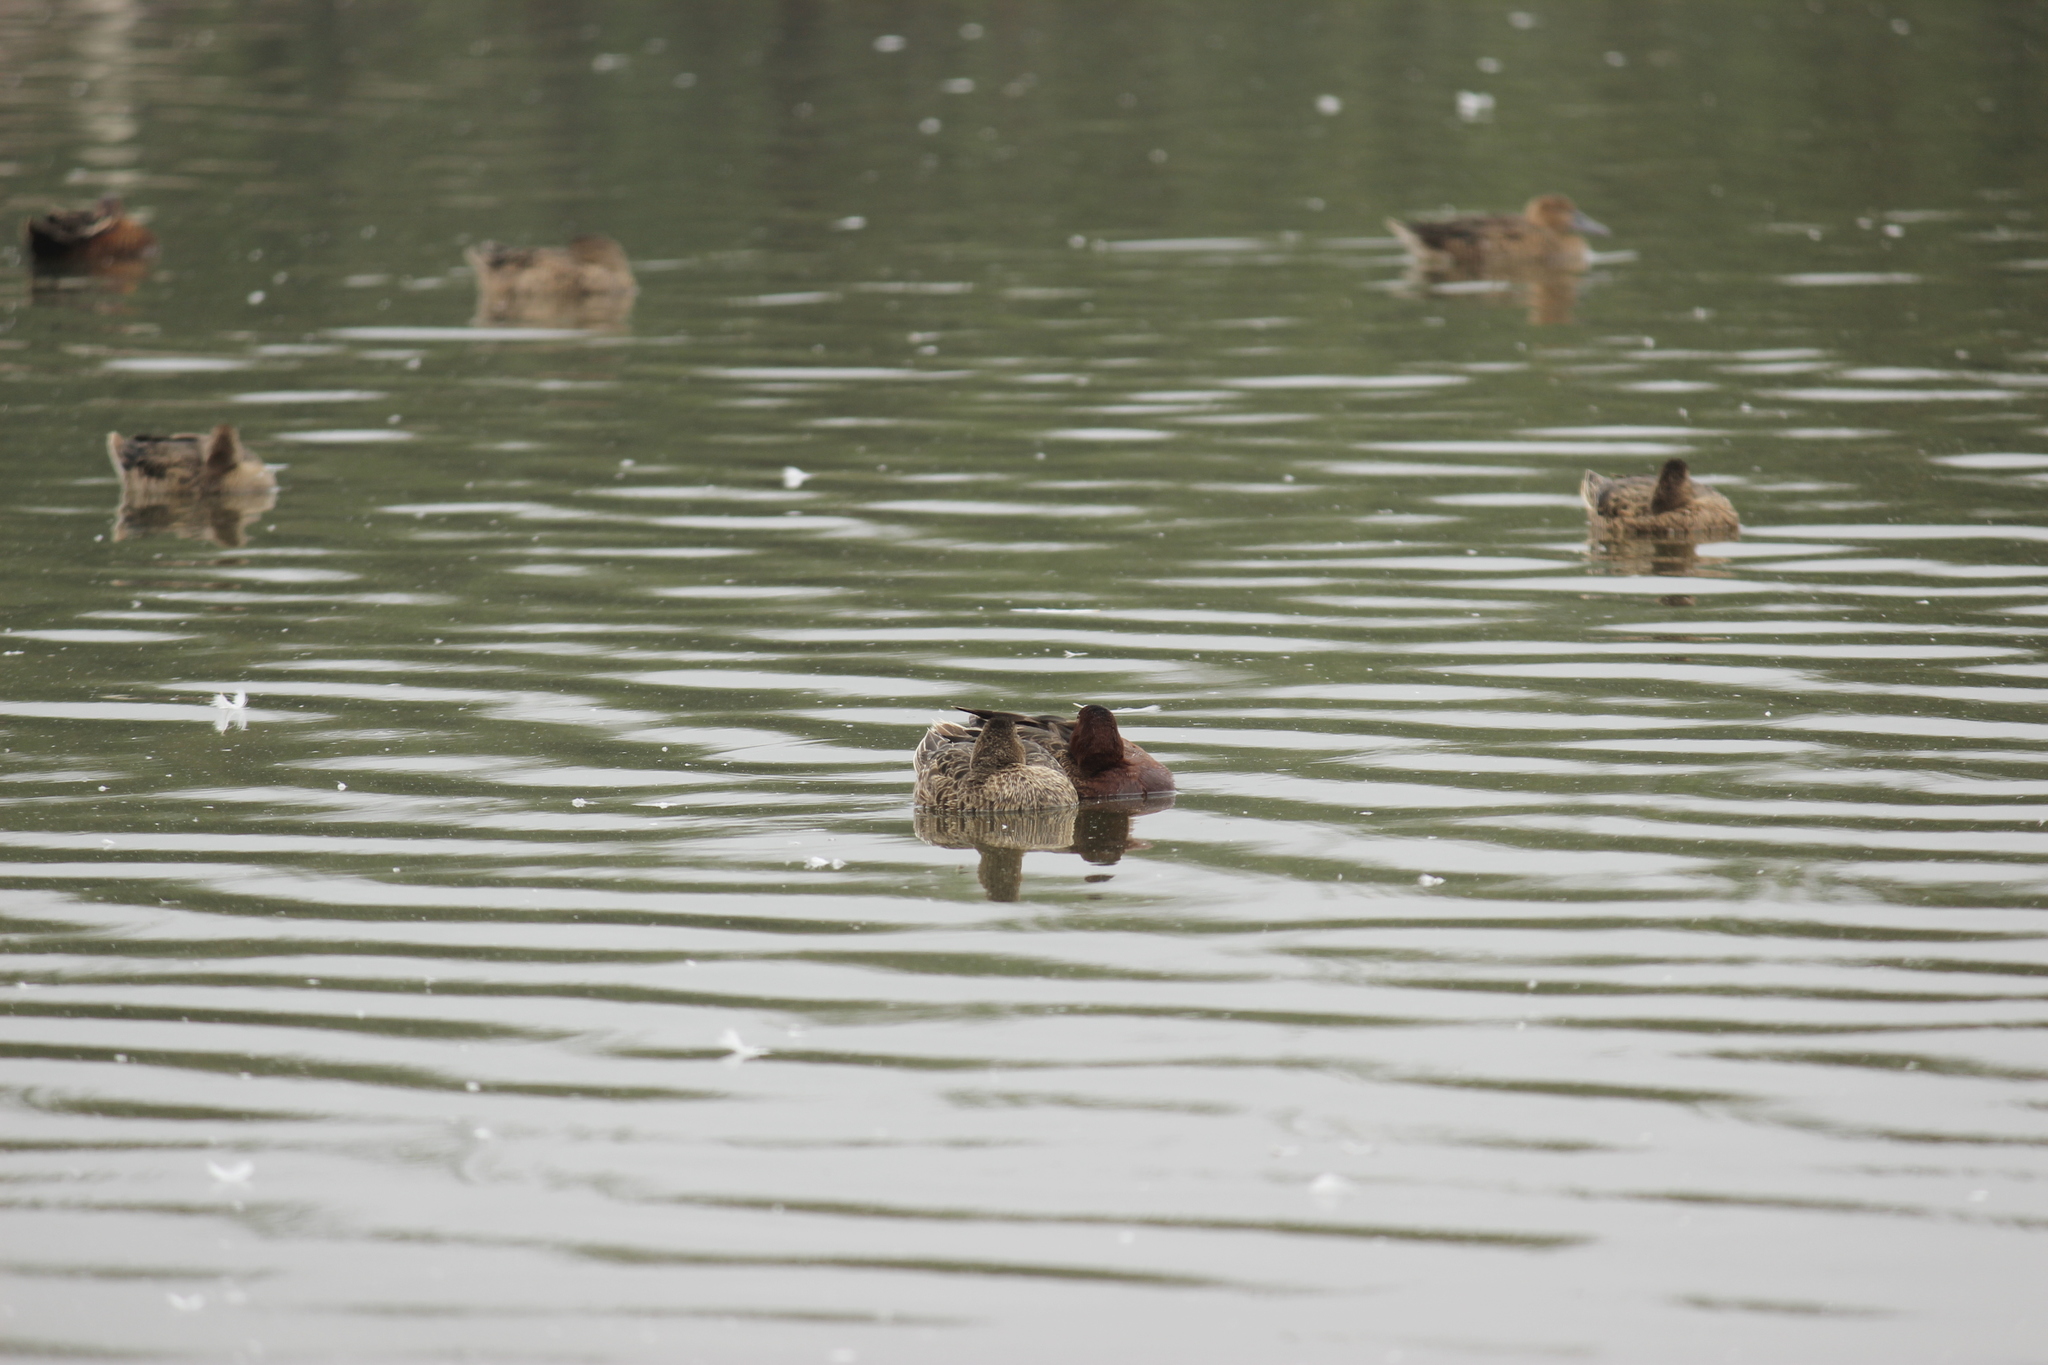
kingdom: Animalia
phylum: Chordata
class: Aves
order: Anseriformes
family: Anatidae
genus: Spatula
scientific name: Spatula cyanoptera
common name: Cinnamon teal
